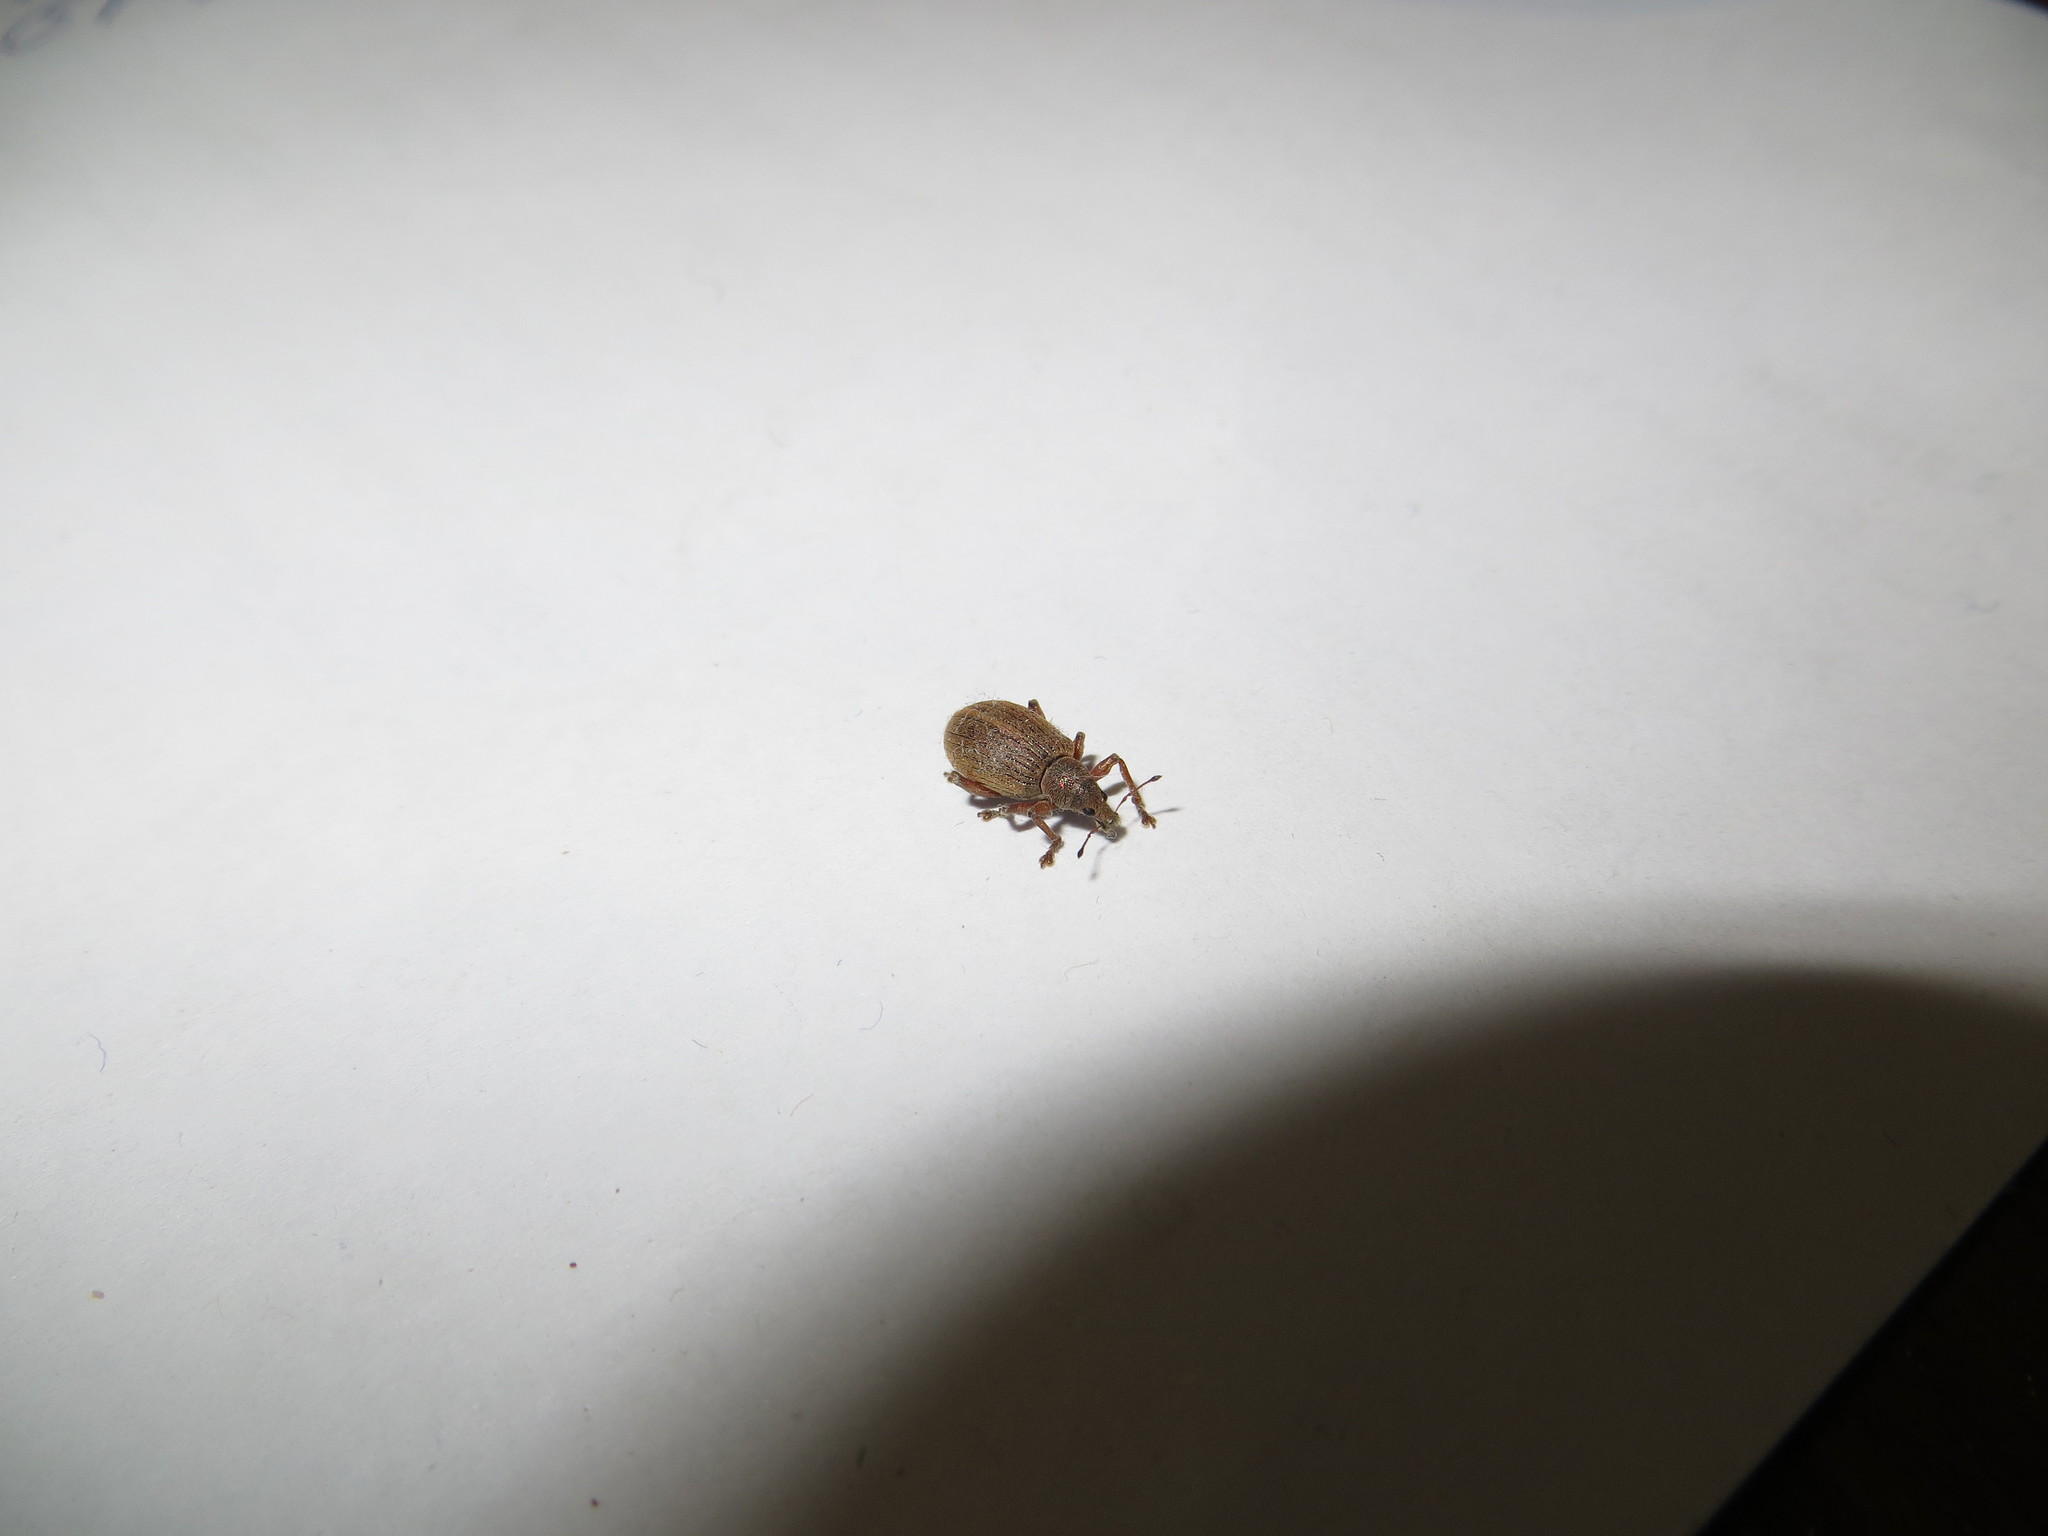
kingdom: Animalia
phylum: Arthropoda
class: Insecta
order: Coleoptera
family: Curculionidae
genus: Polydrusus
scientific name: Polydrusus mollis
